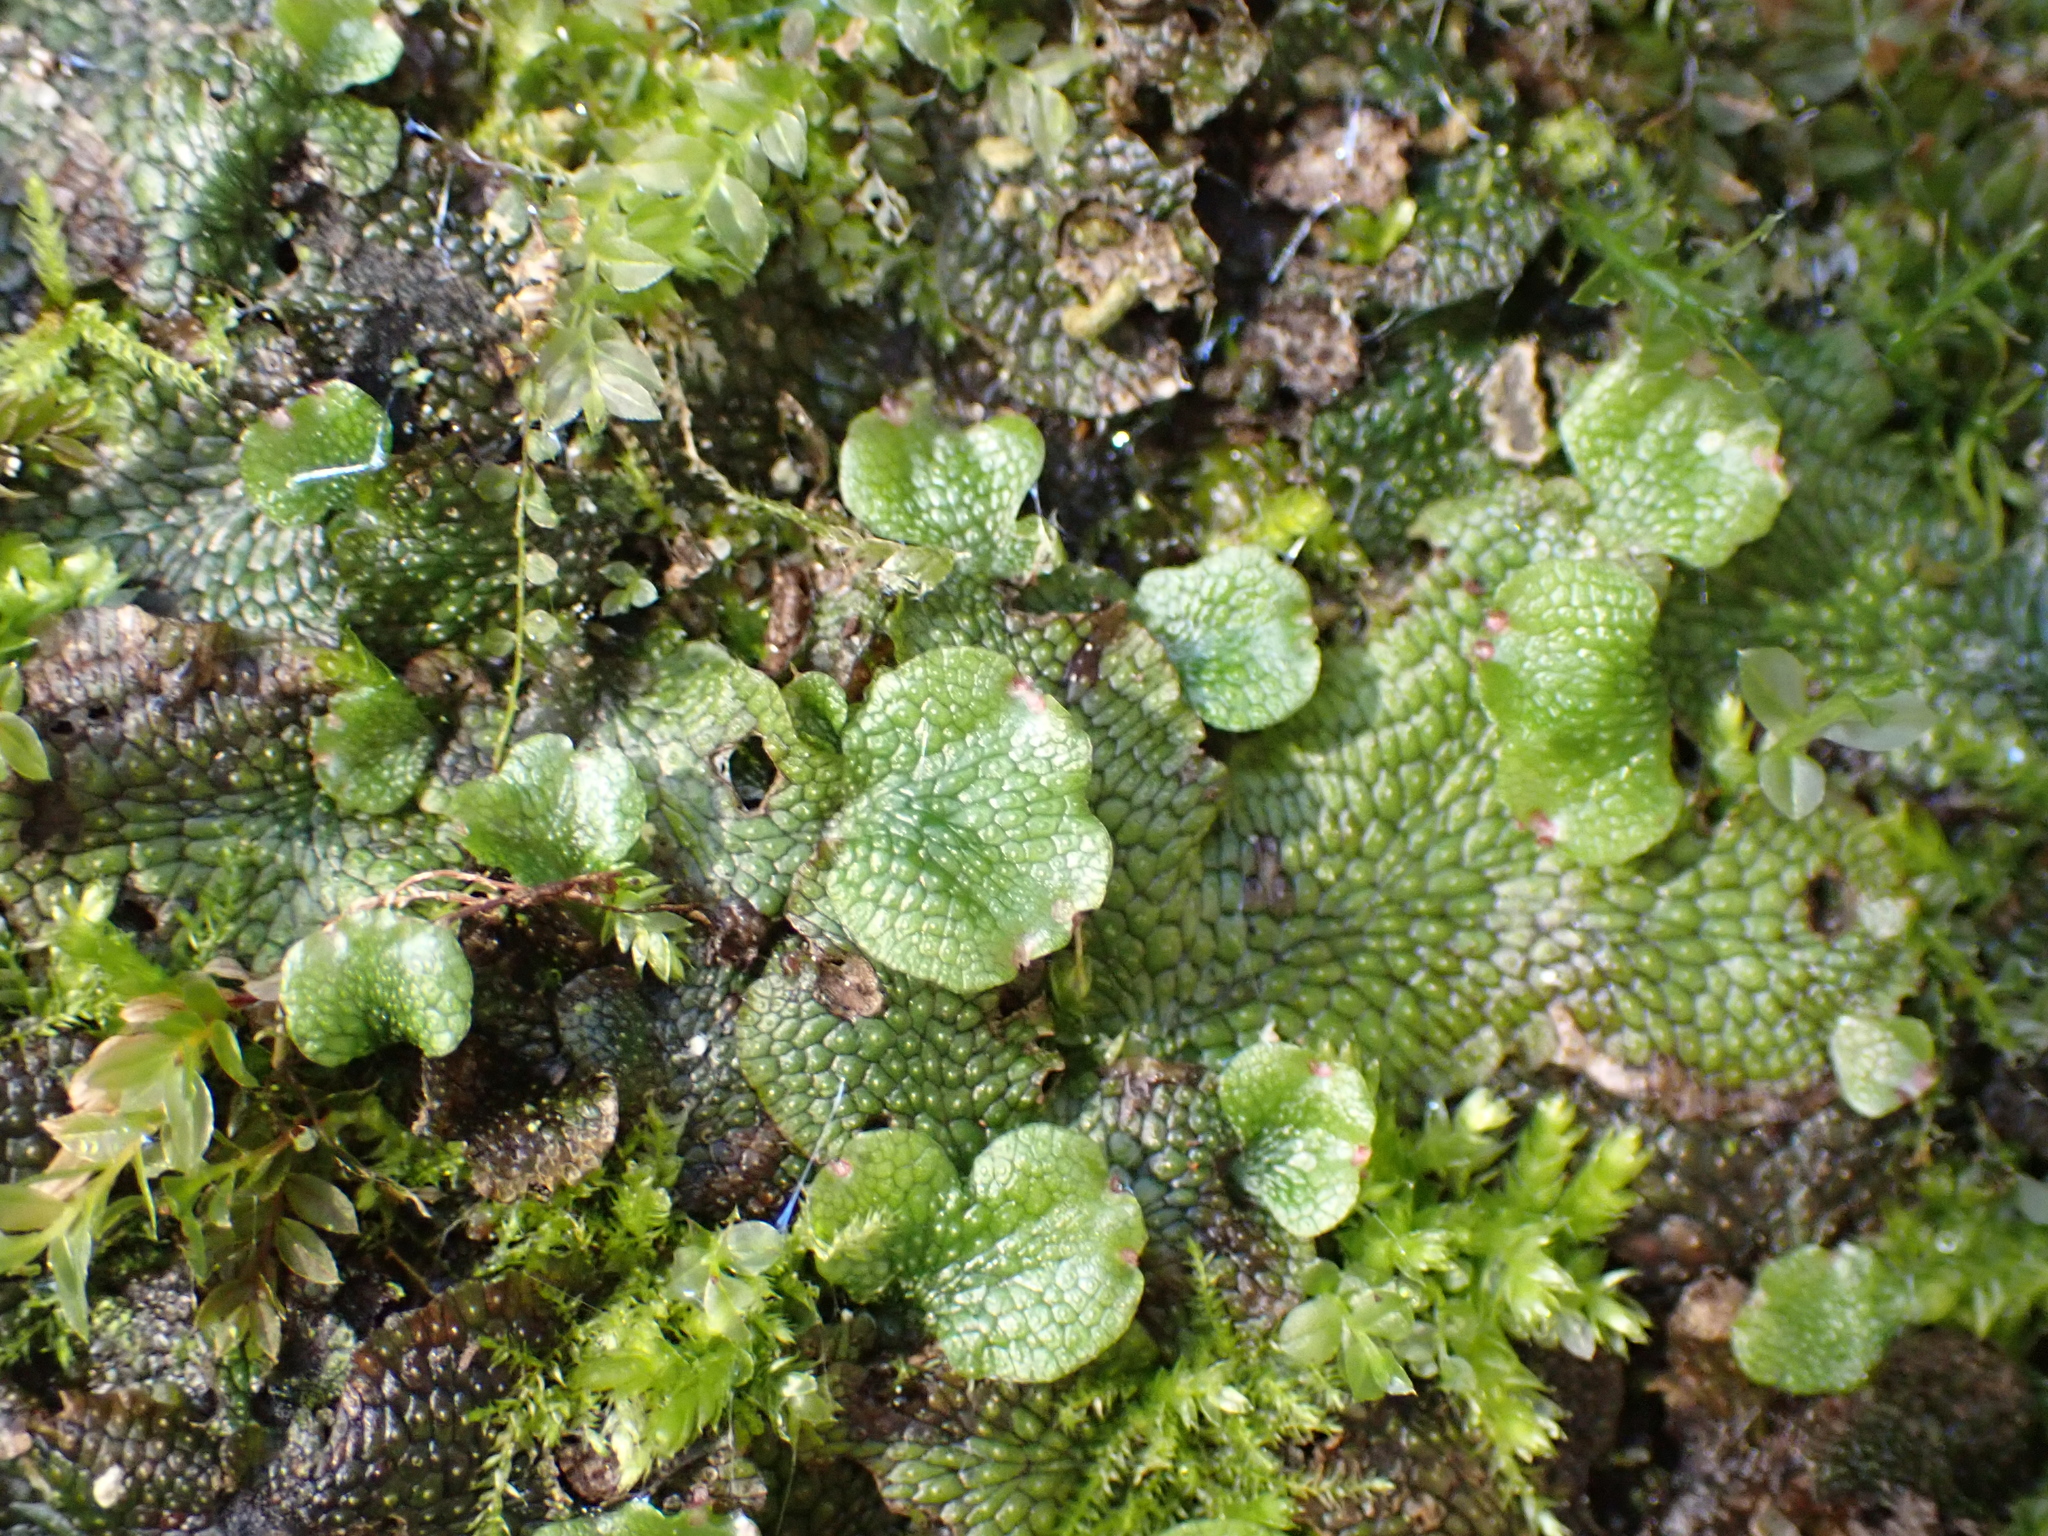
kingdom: Plantae
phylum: Marchantiophyta
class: Marchantiopsida
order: Marchantiales
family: Conocephalaceae
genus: Conocephalum
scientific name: Conocephalum salebrosum
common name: Cat-tongue liverwort
